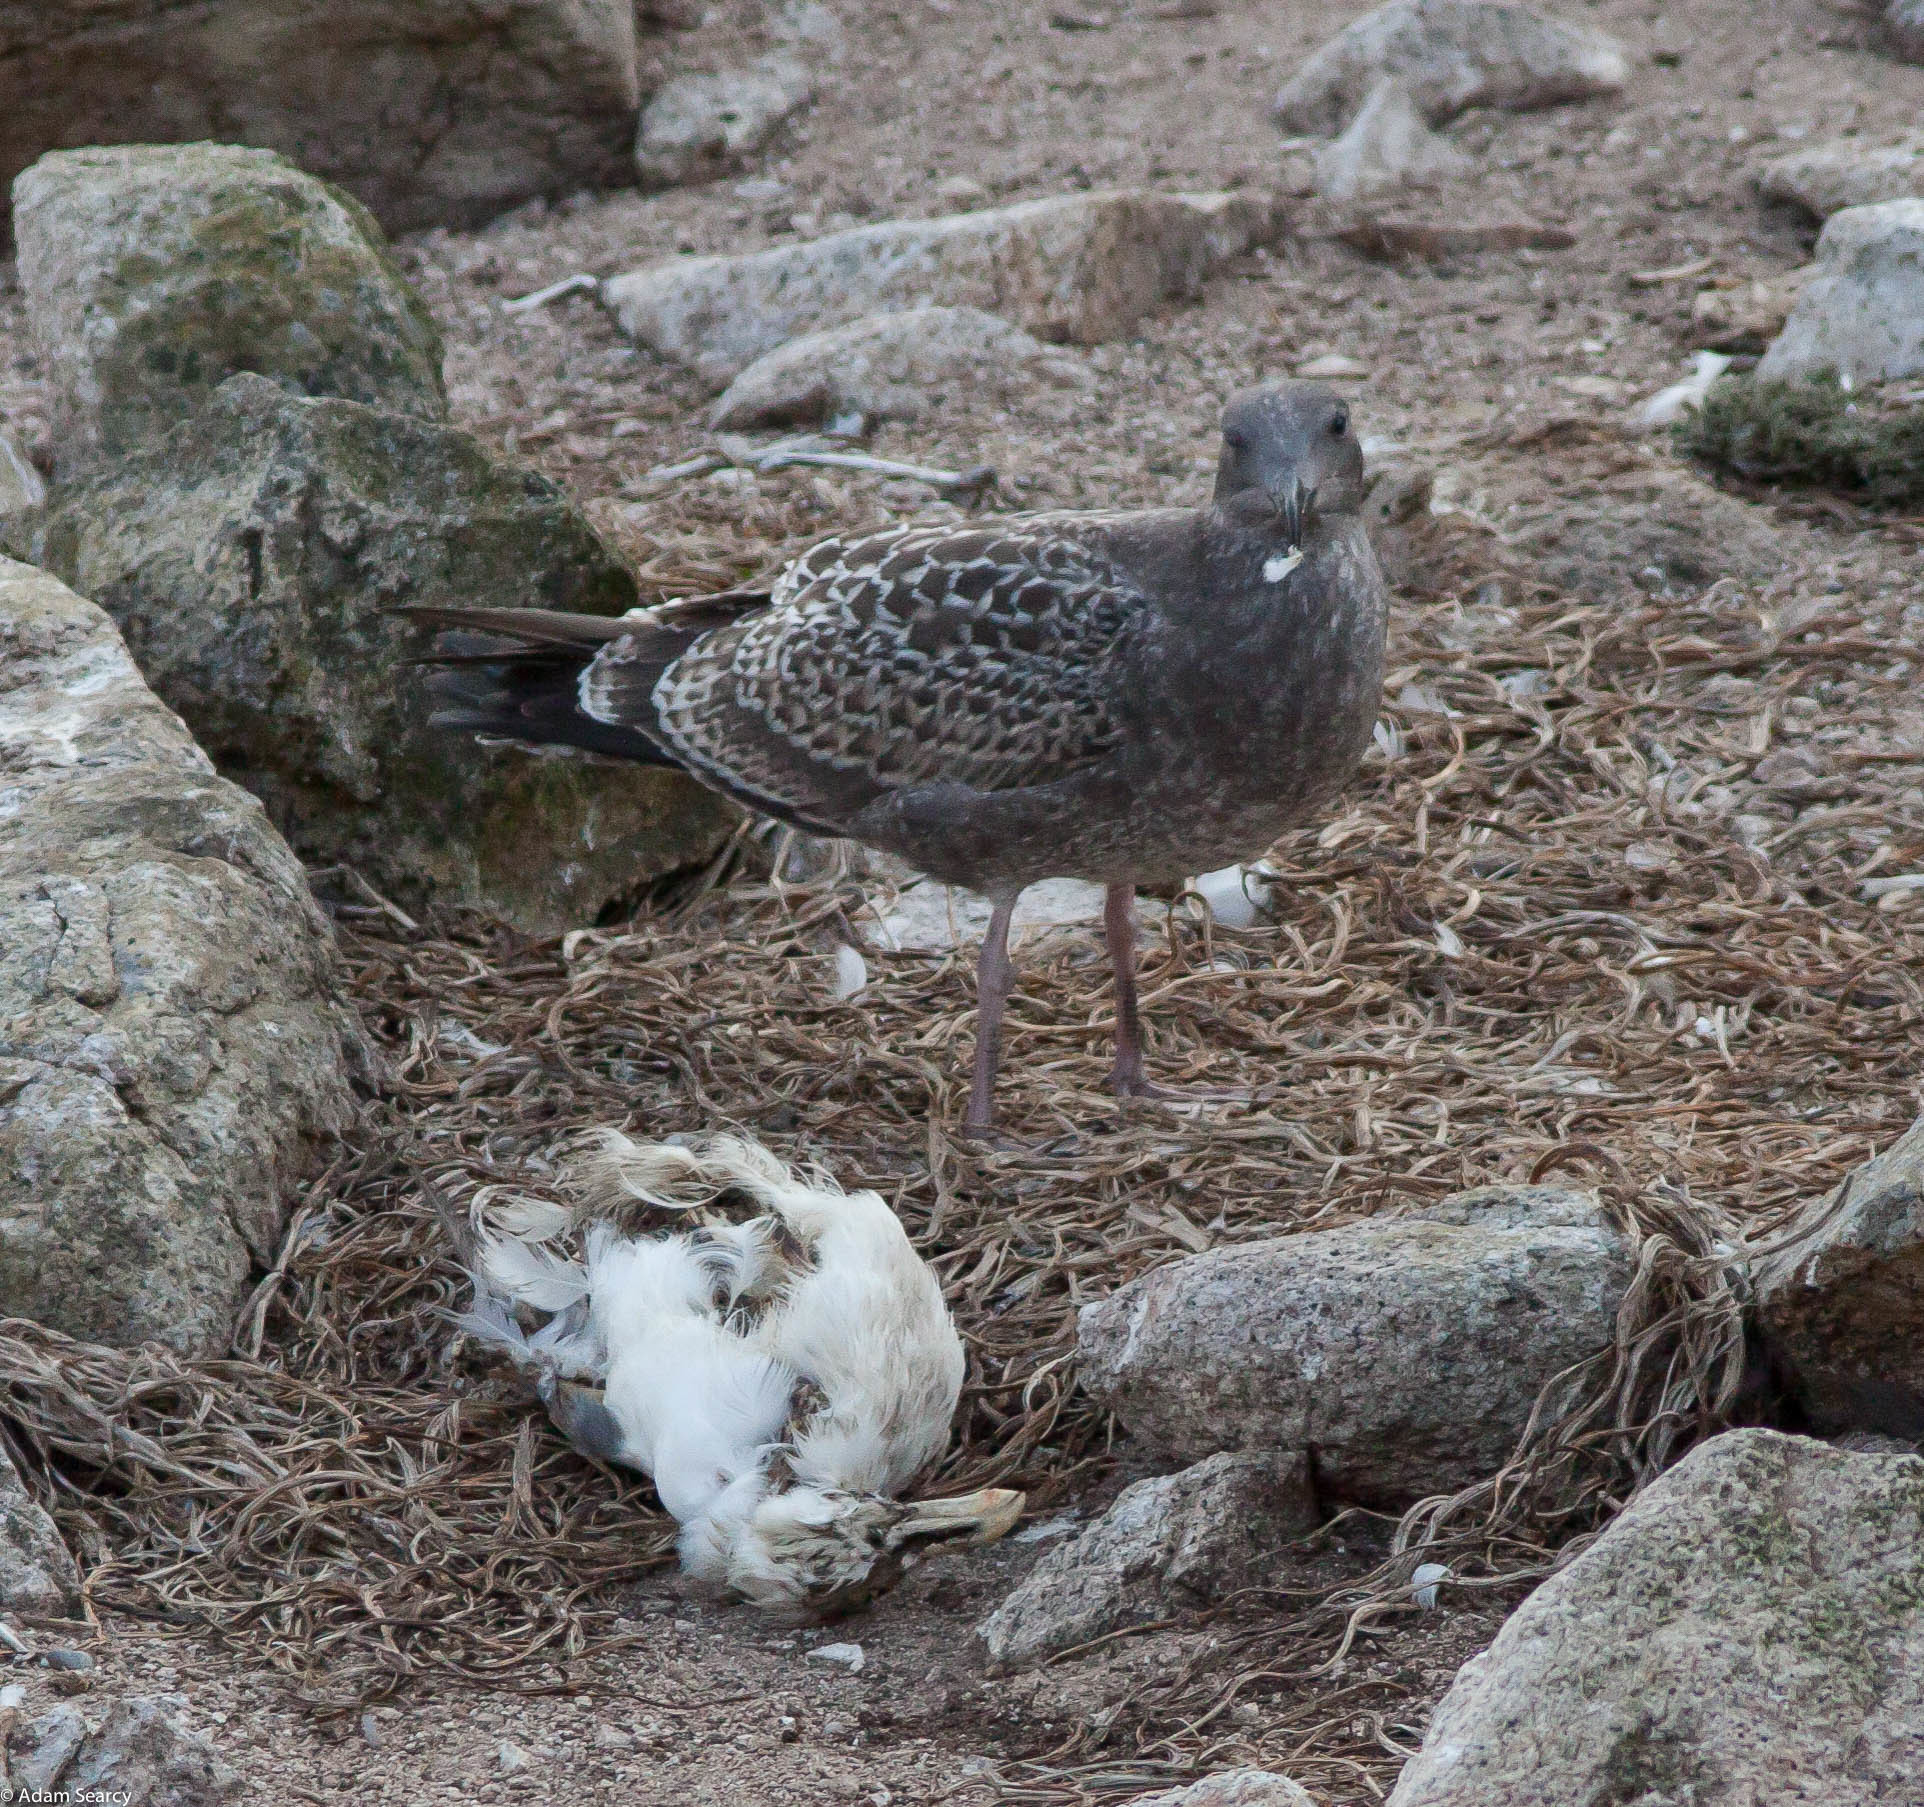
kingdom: Animalia
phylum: Chordata
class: Aves
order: Charadriiformes
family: Laridae
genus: Larus
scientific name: Larus occidentalis
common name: Western gull
